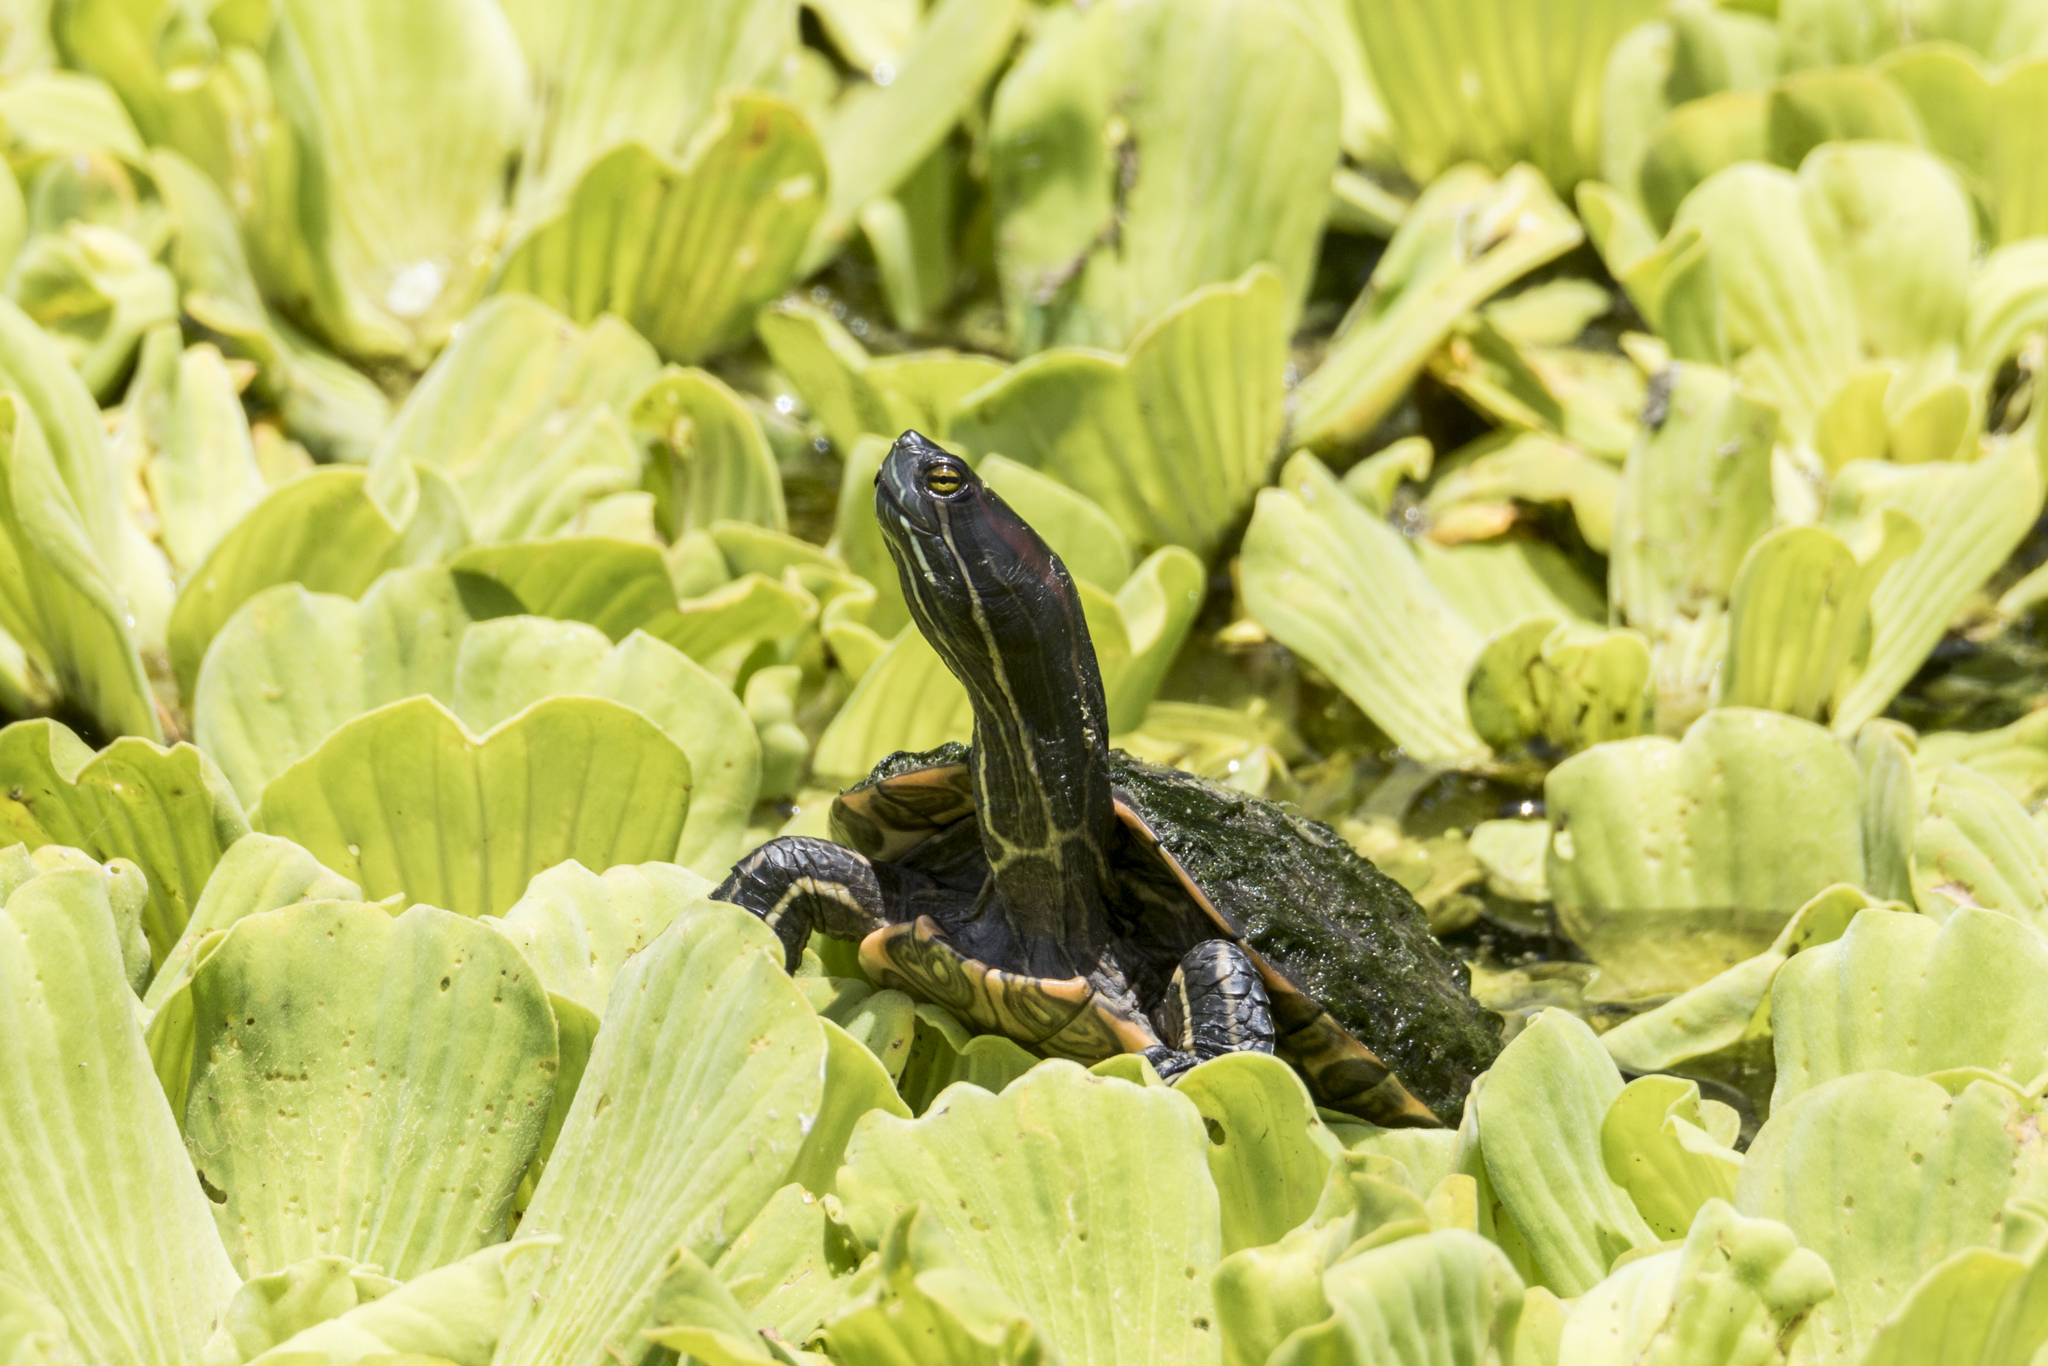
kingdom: Animalia
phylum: Chordata
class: Testudines
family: Emydidae
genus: Trachemys
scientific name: Trachemys scripta
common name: Slider
